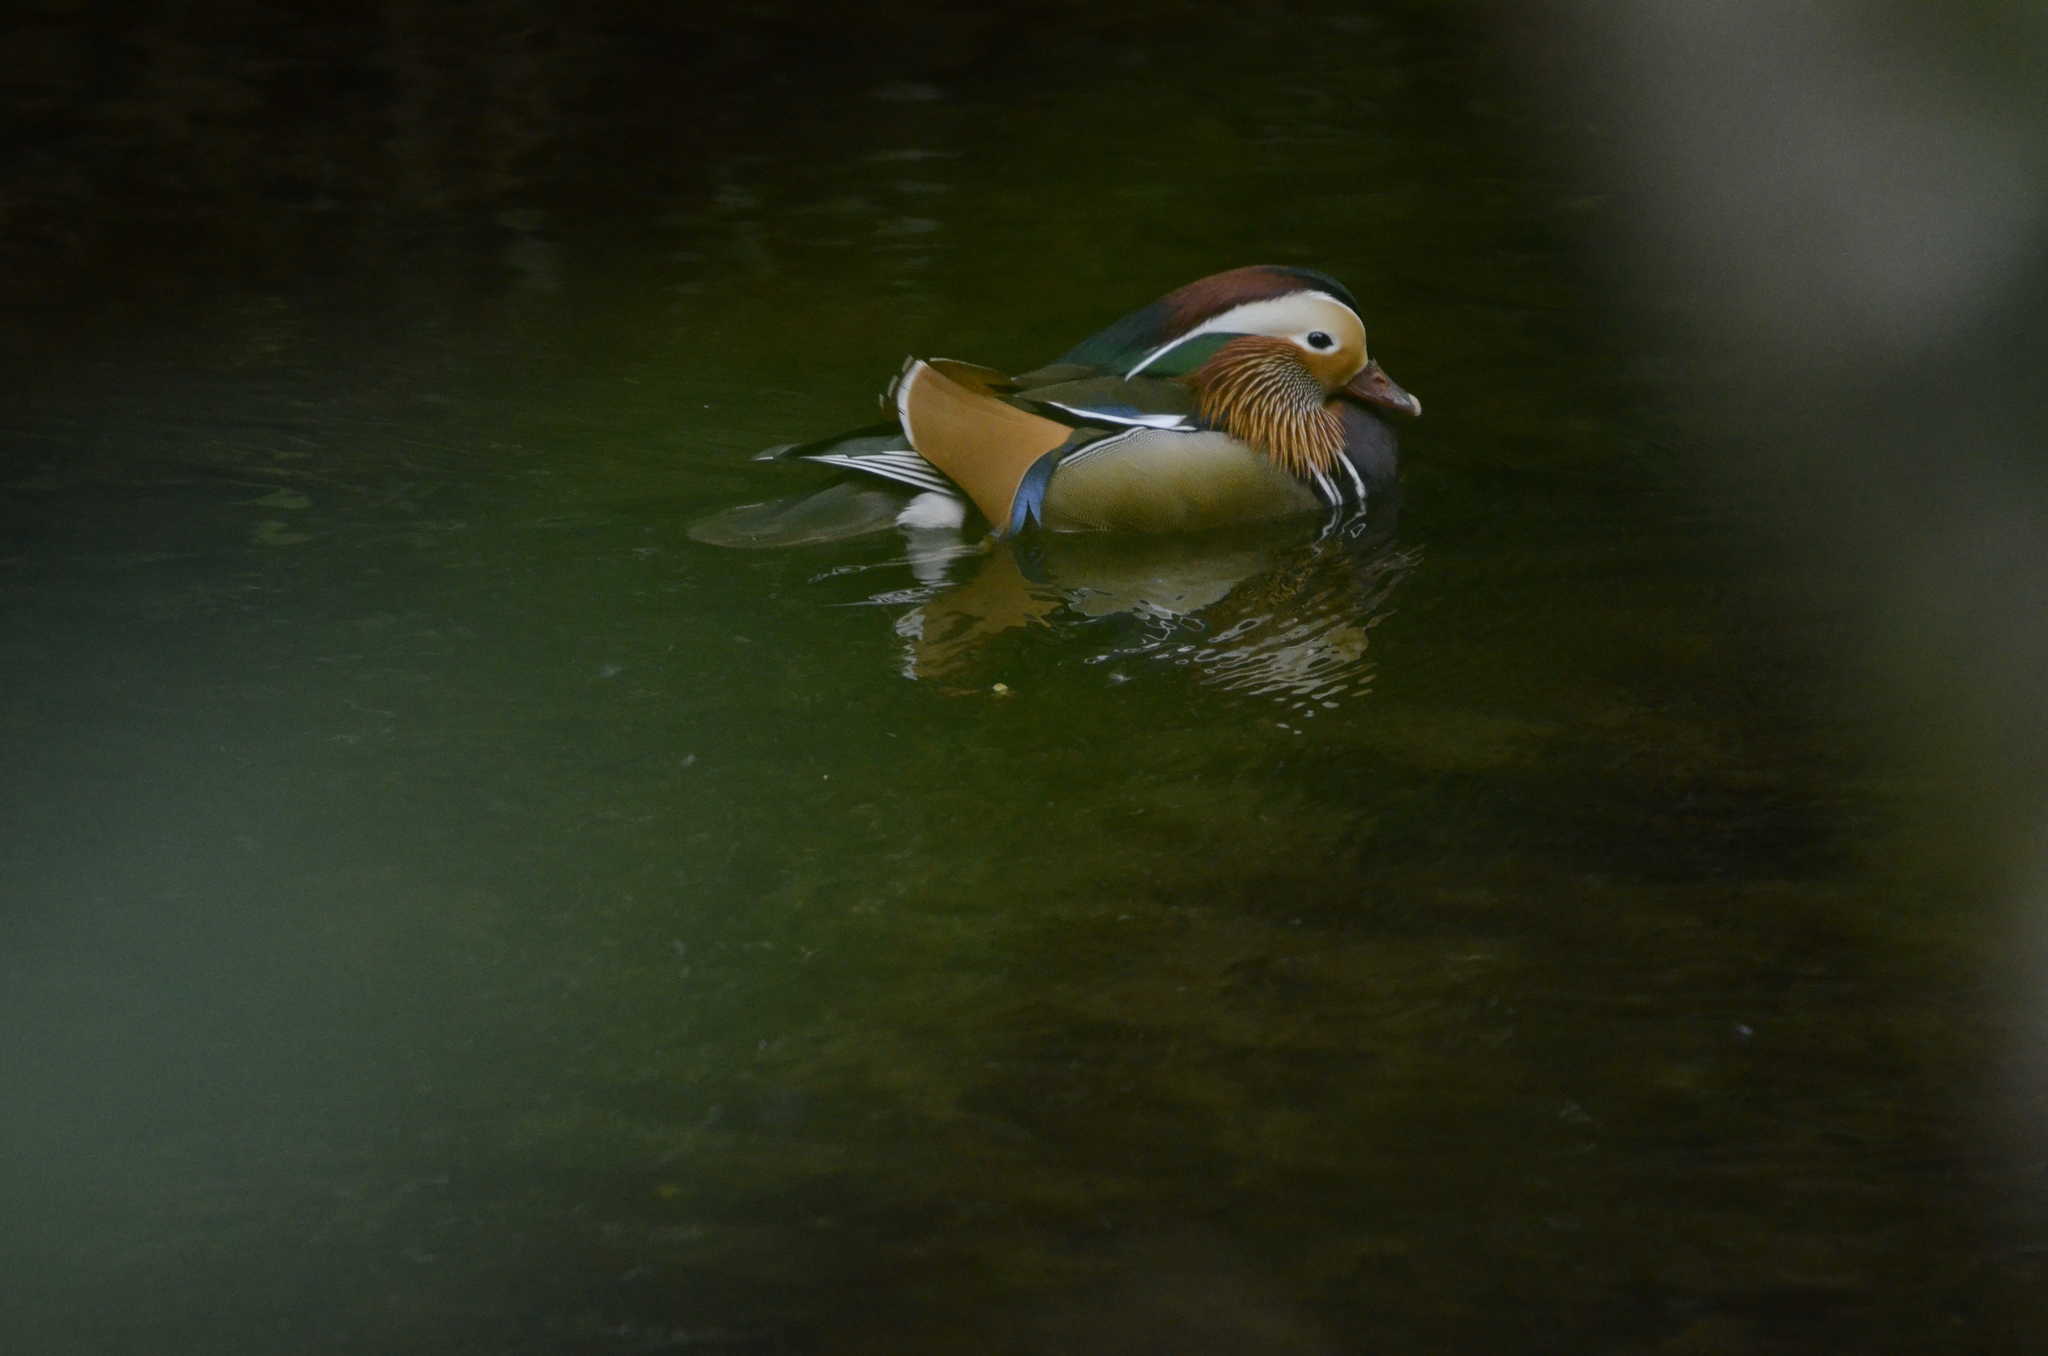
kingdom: Animalia
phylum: Chordata
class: Aves
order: Anseriformes
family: Anatidae
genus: Aix
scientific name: Aix galericulata
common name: Mandarin duck
